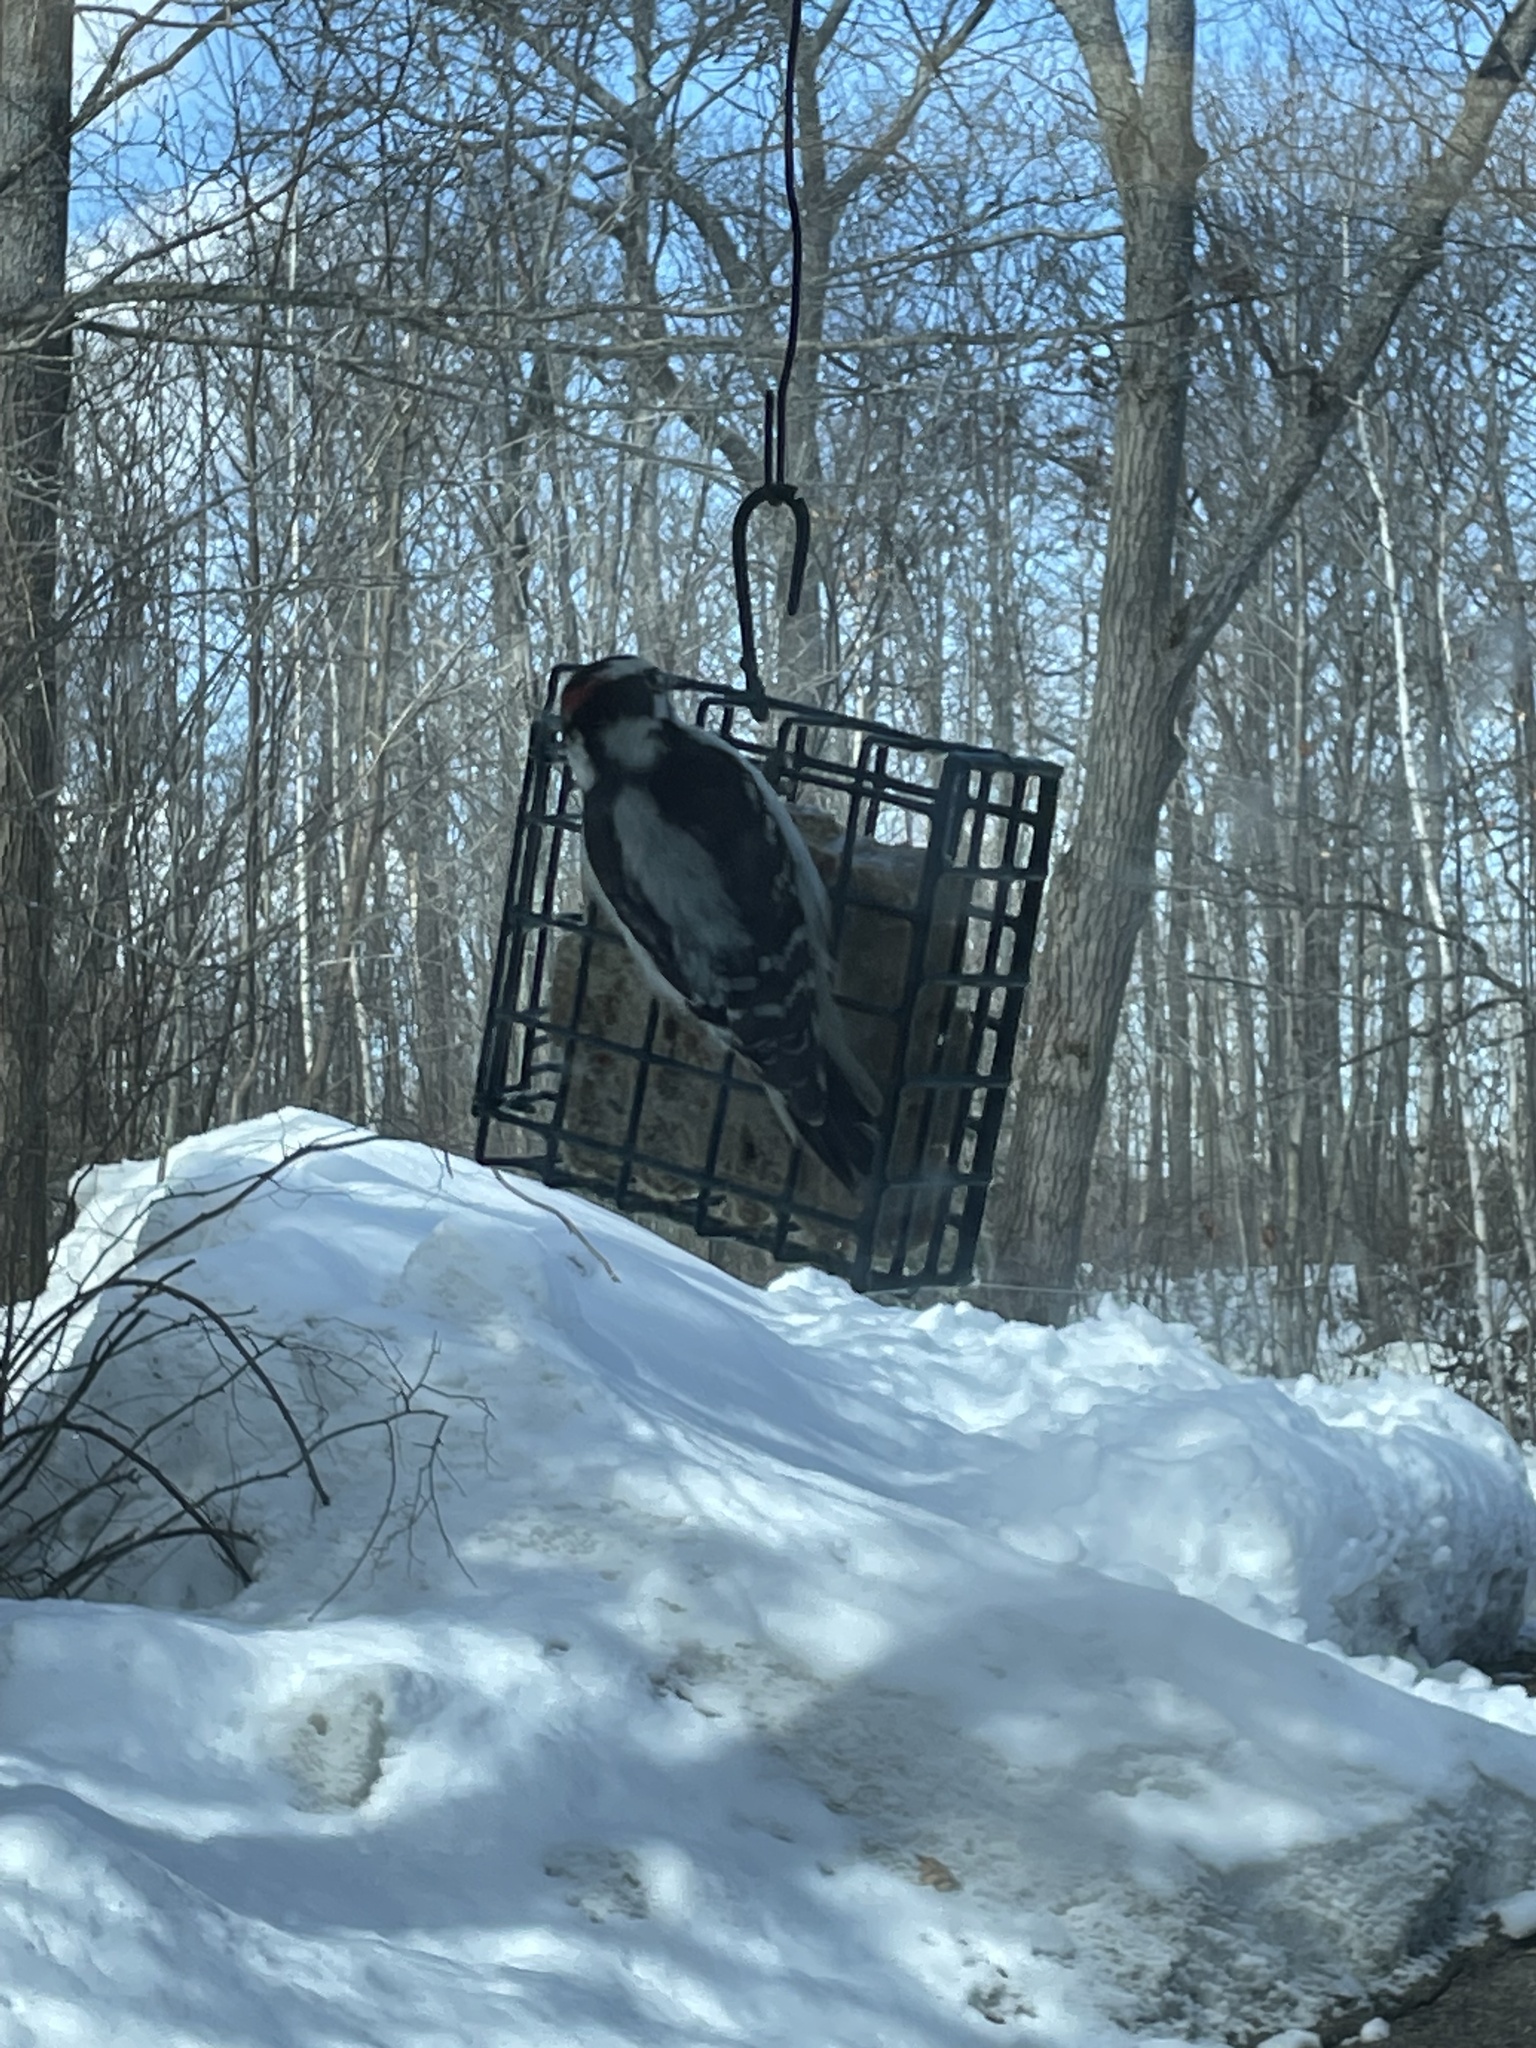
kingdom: Animalia
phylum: Chordata
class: Aves
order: Piciformes
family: Picidae
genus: Dryobates
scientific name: Dryobates pubescens
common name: Downy woodpecker
